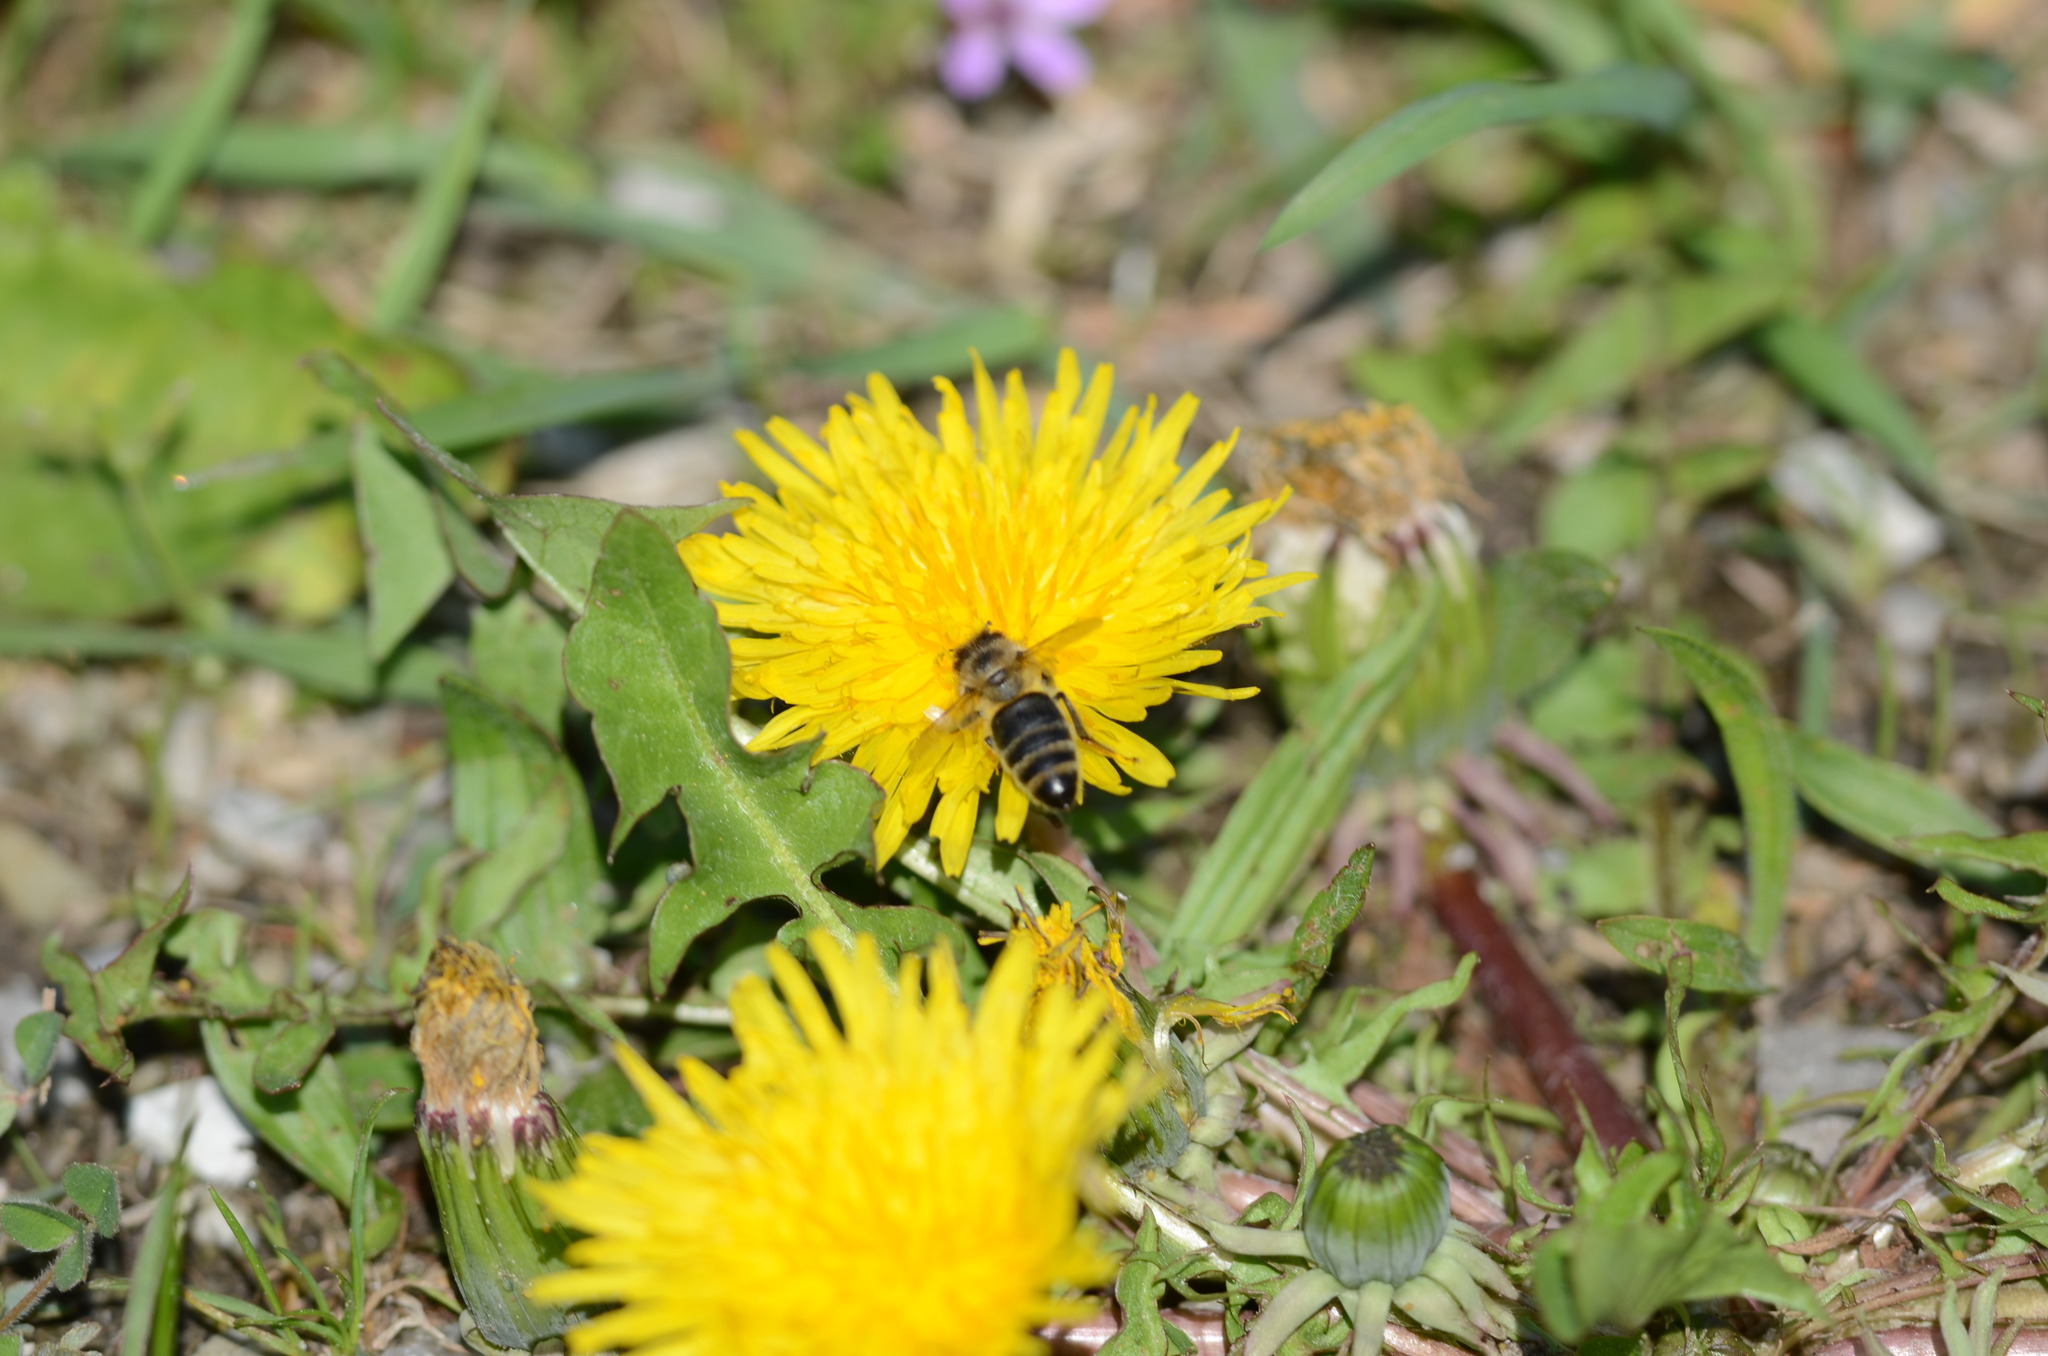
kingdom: Animalia
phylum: Arthropoda
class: Insecta
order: Hymenoptera
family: Apidae
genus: Apis
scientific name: Apis mellifera
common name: Honey bee
